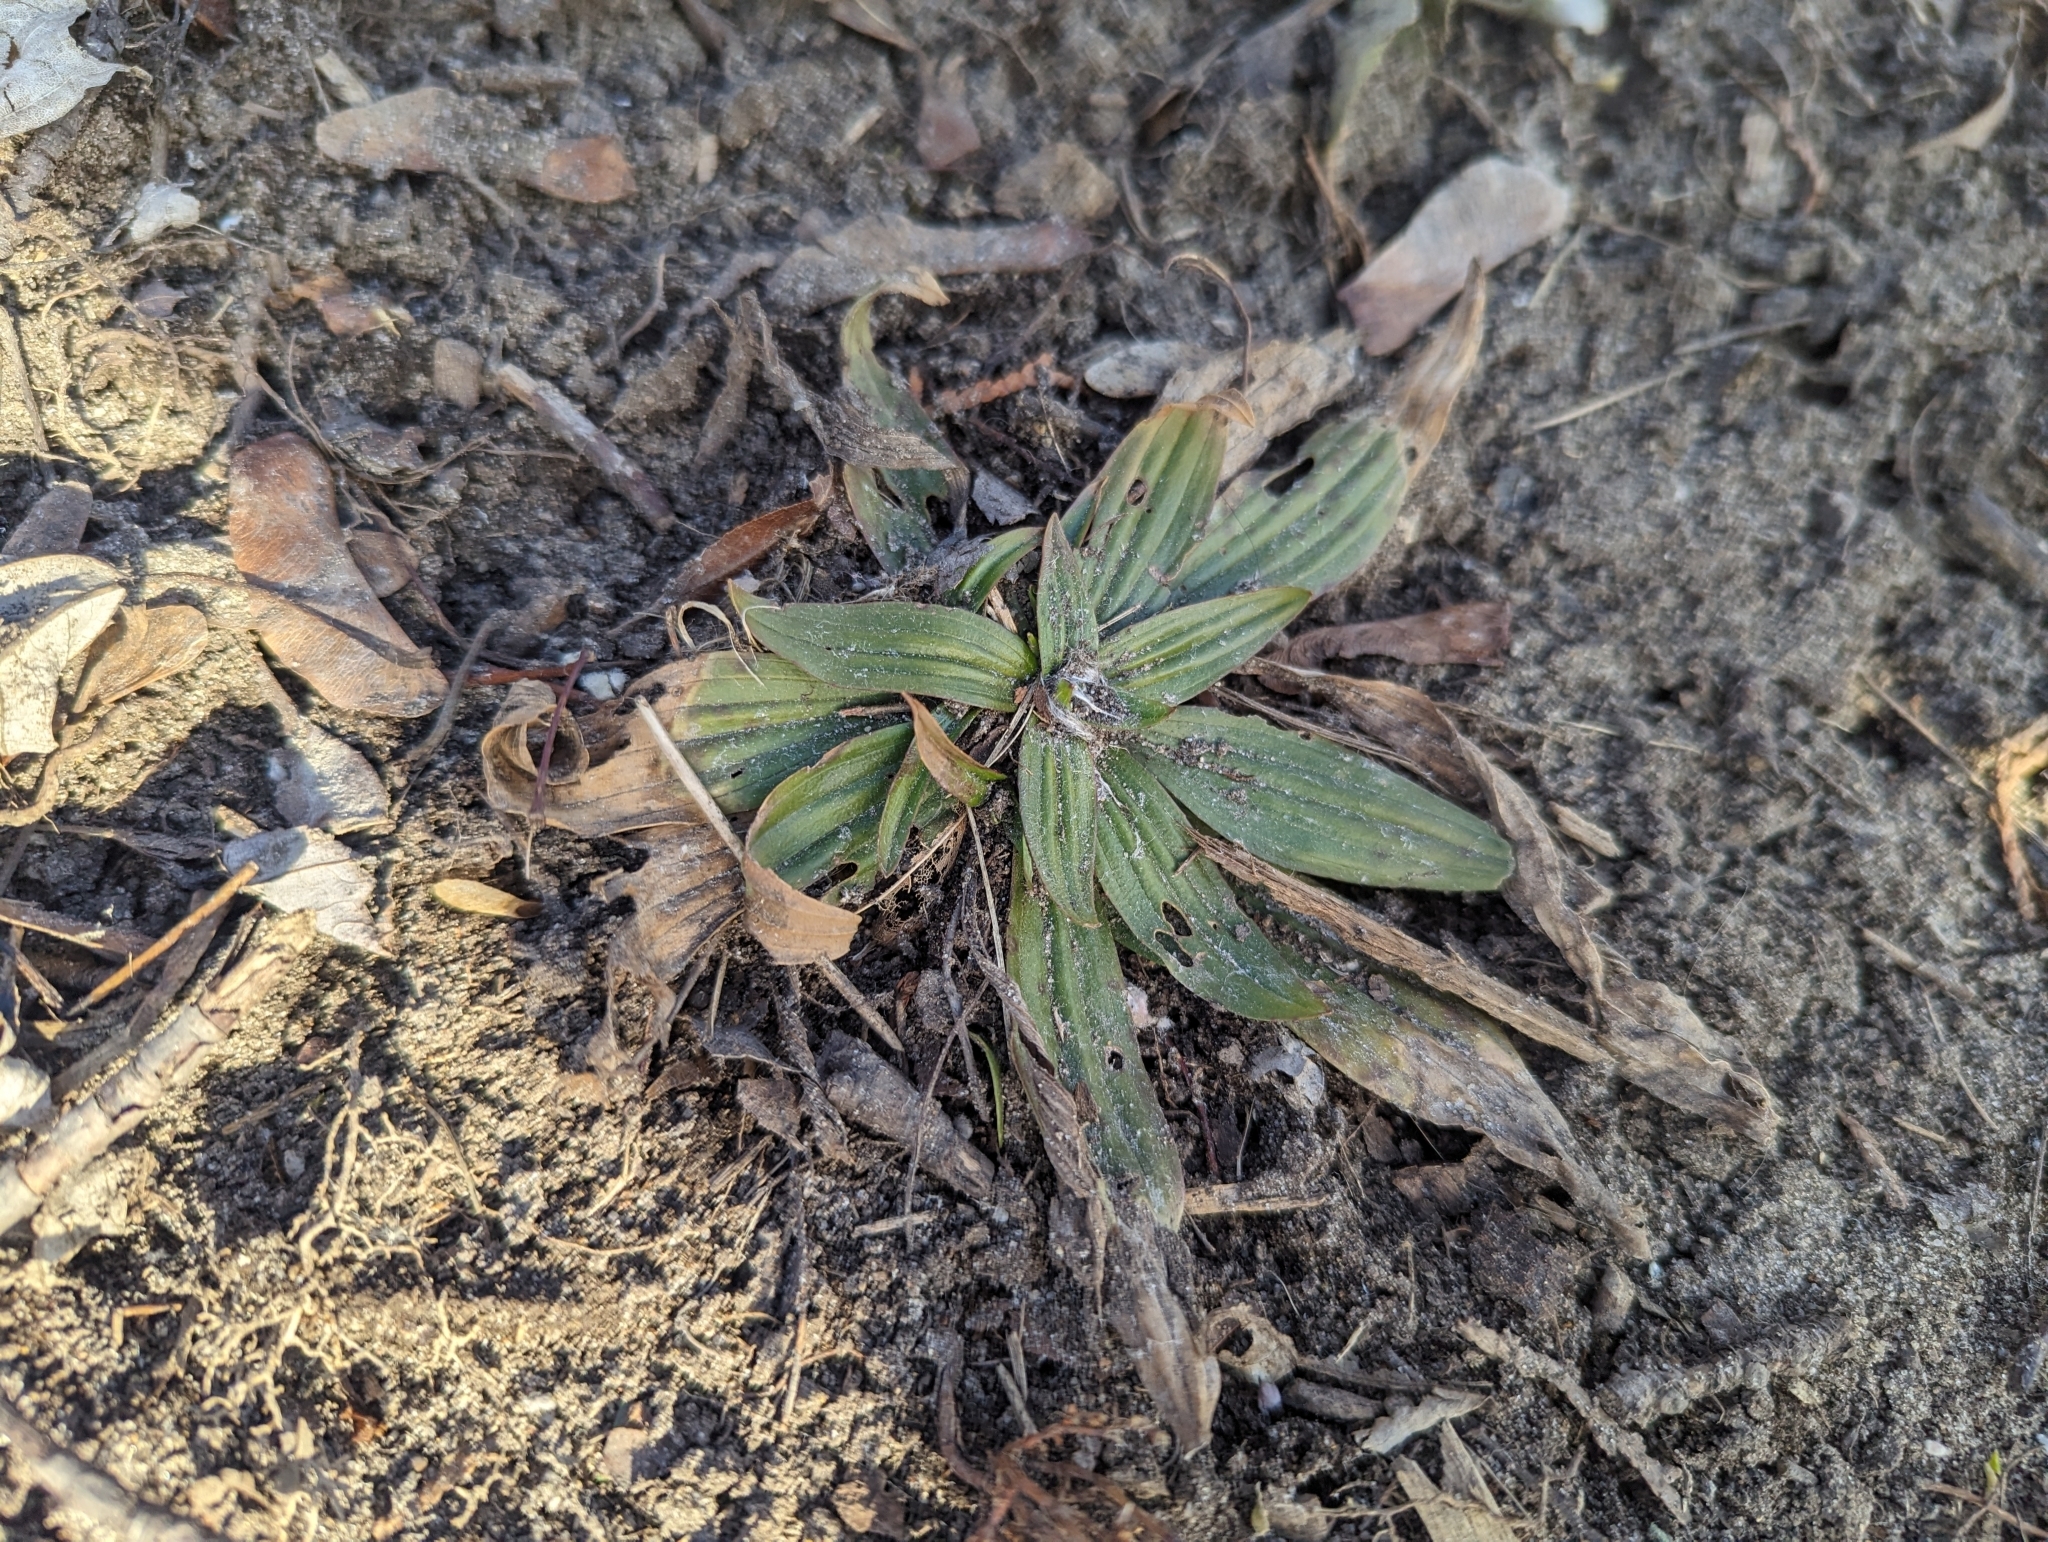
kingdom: Plantae
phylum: Tracheophyta
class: Magnoliopsida
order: Lamiales
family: Plantaginaceae
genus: Plantago
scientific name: Plantago lanceolata
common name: Ribwort plantain
